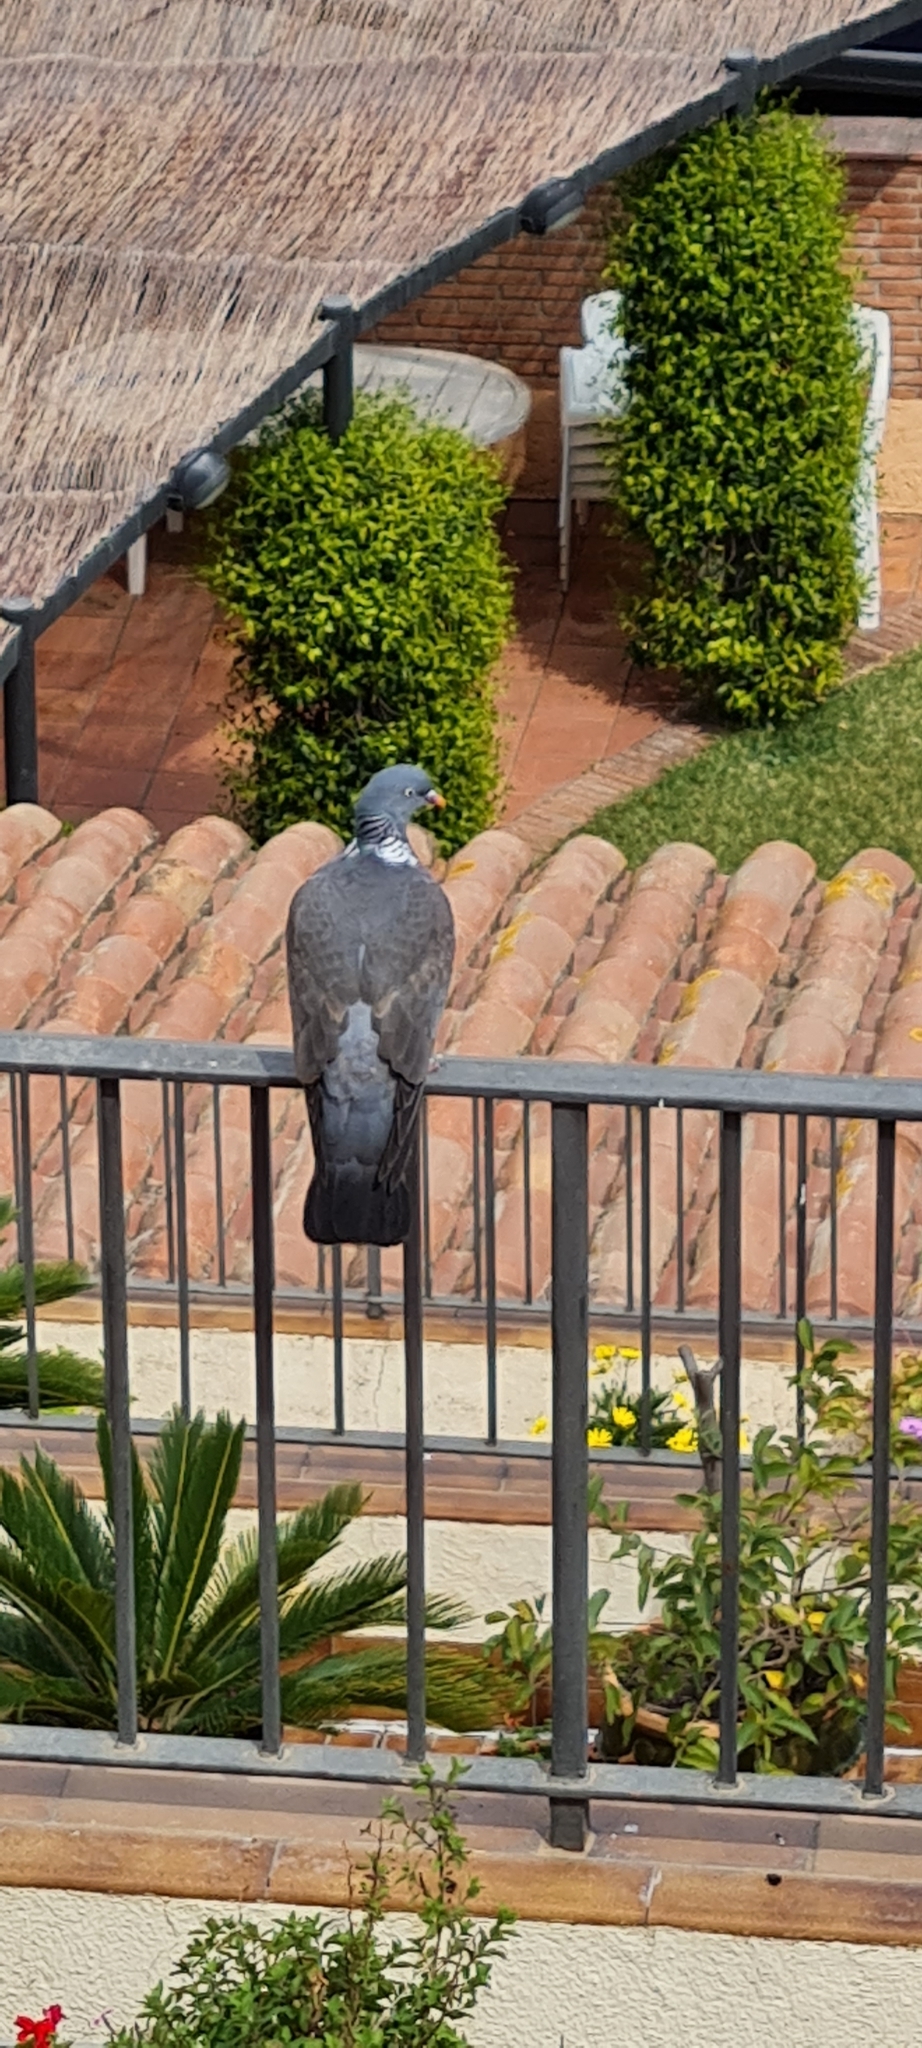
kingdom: Animalia
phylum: Chordata
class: Aves
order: Columbiformes
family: Columbidae
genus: Columba
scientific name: Columba palumbus
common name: Common wood pigeon
